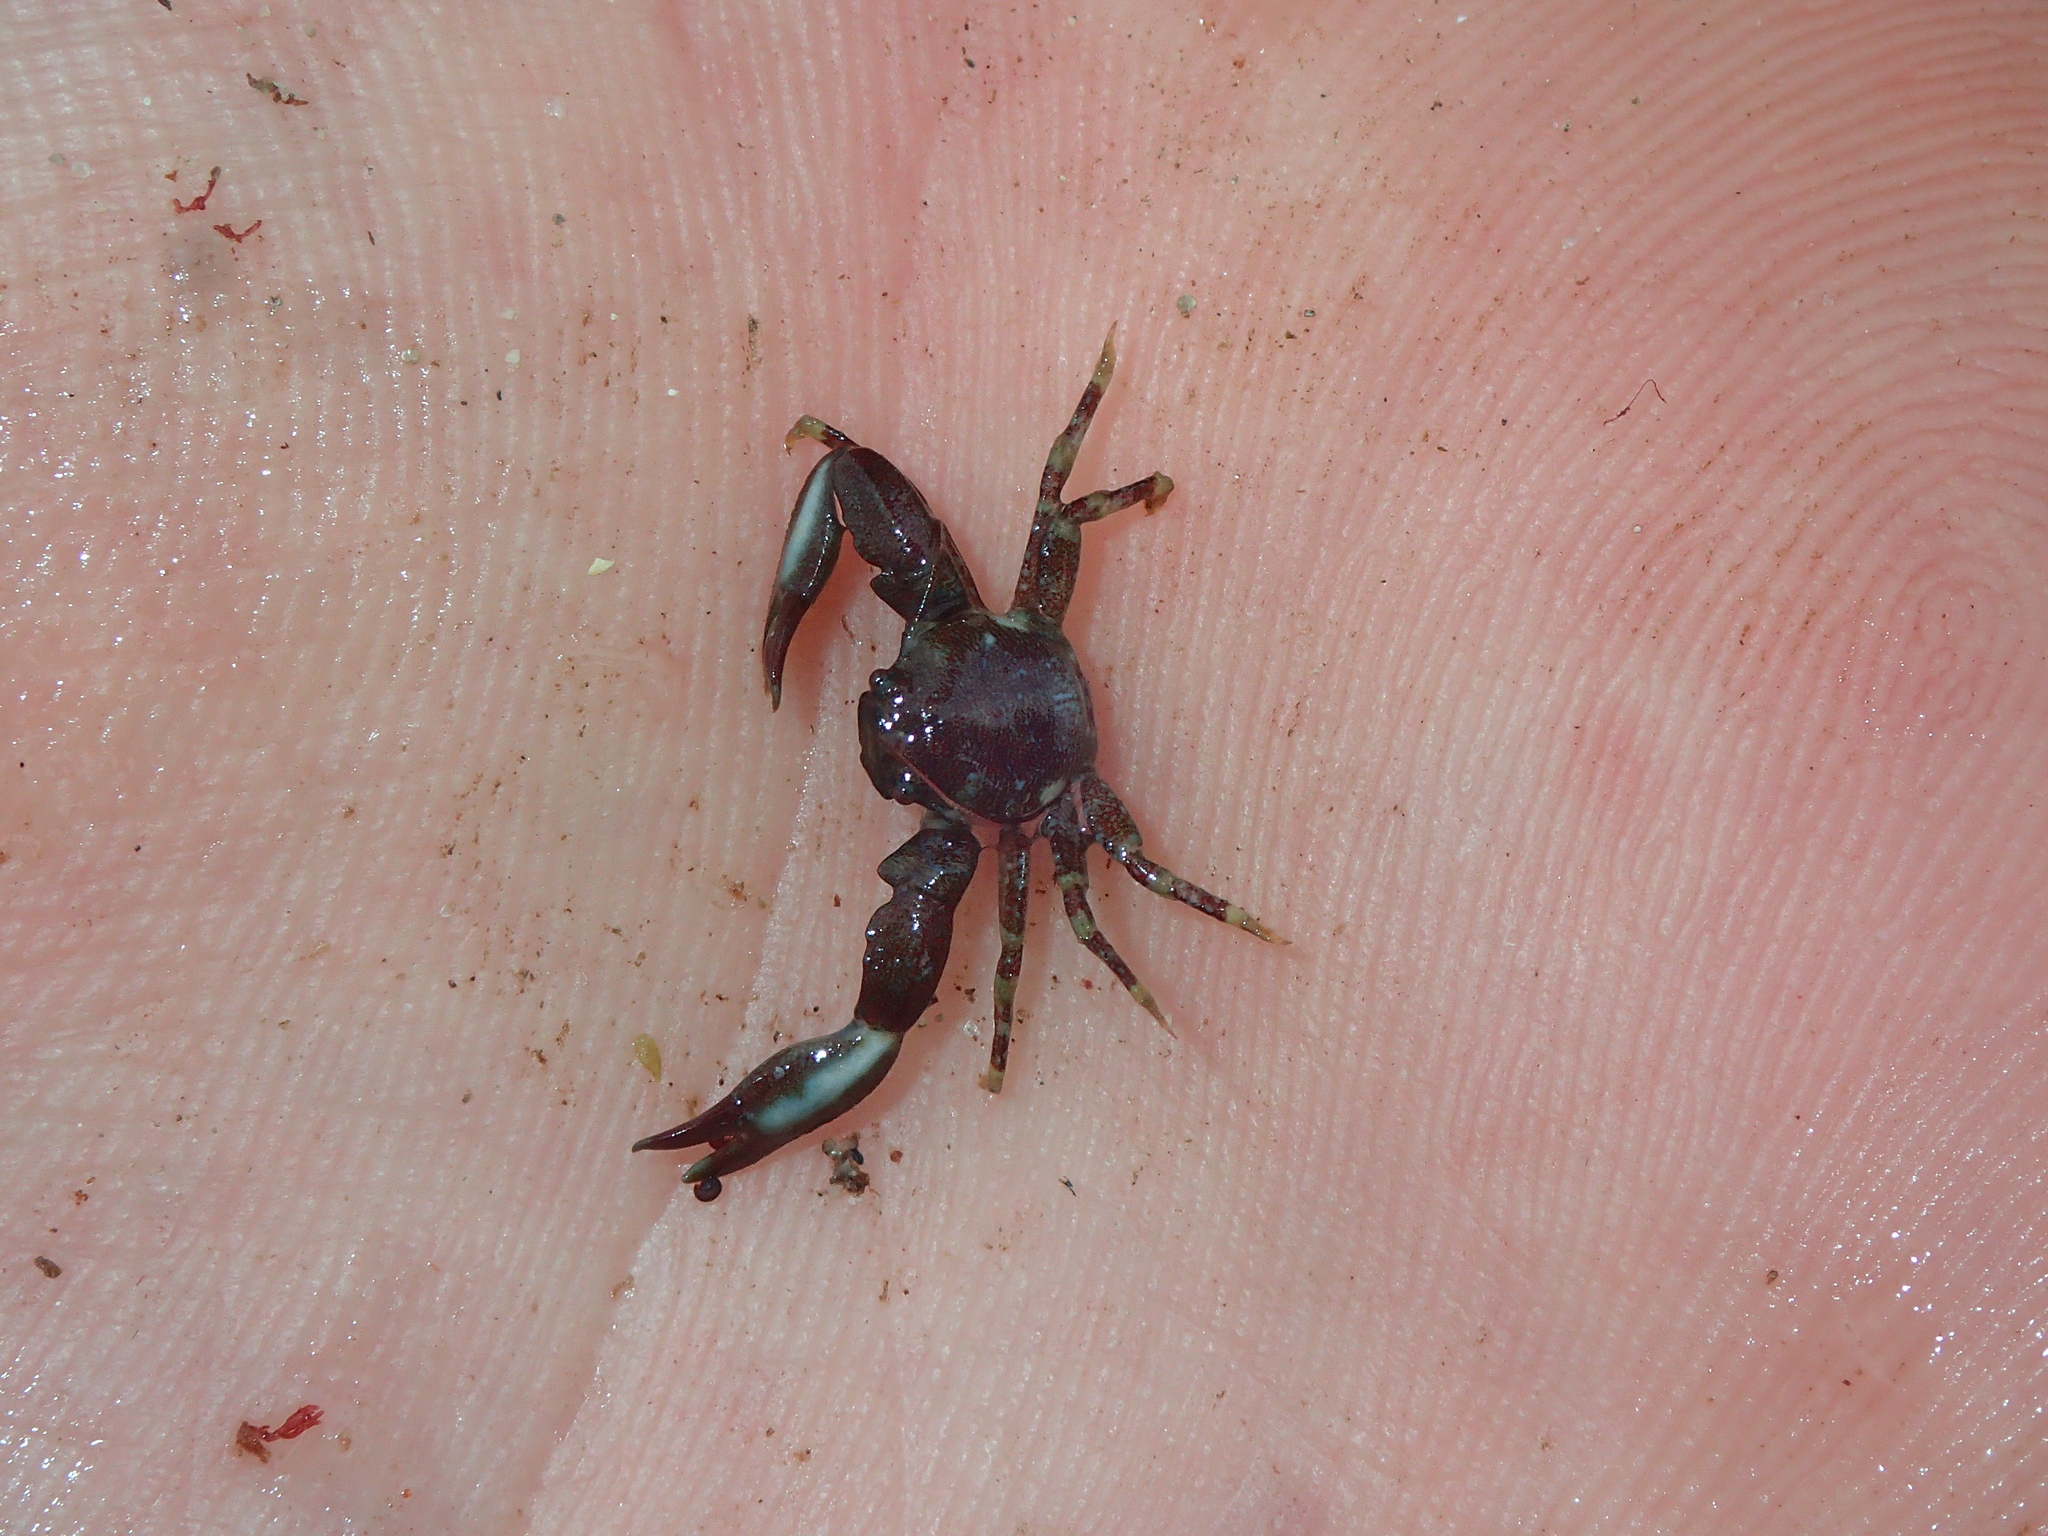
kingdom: Animalia
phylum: Arthropoda
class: Malacostraca
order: Decapoda
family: Porcellanidae
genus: Pisidia
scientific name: Pisidia longicornis
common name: Long clawed porcelain crab
